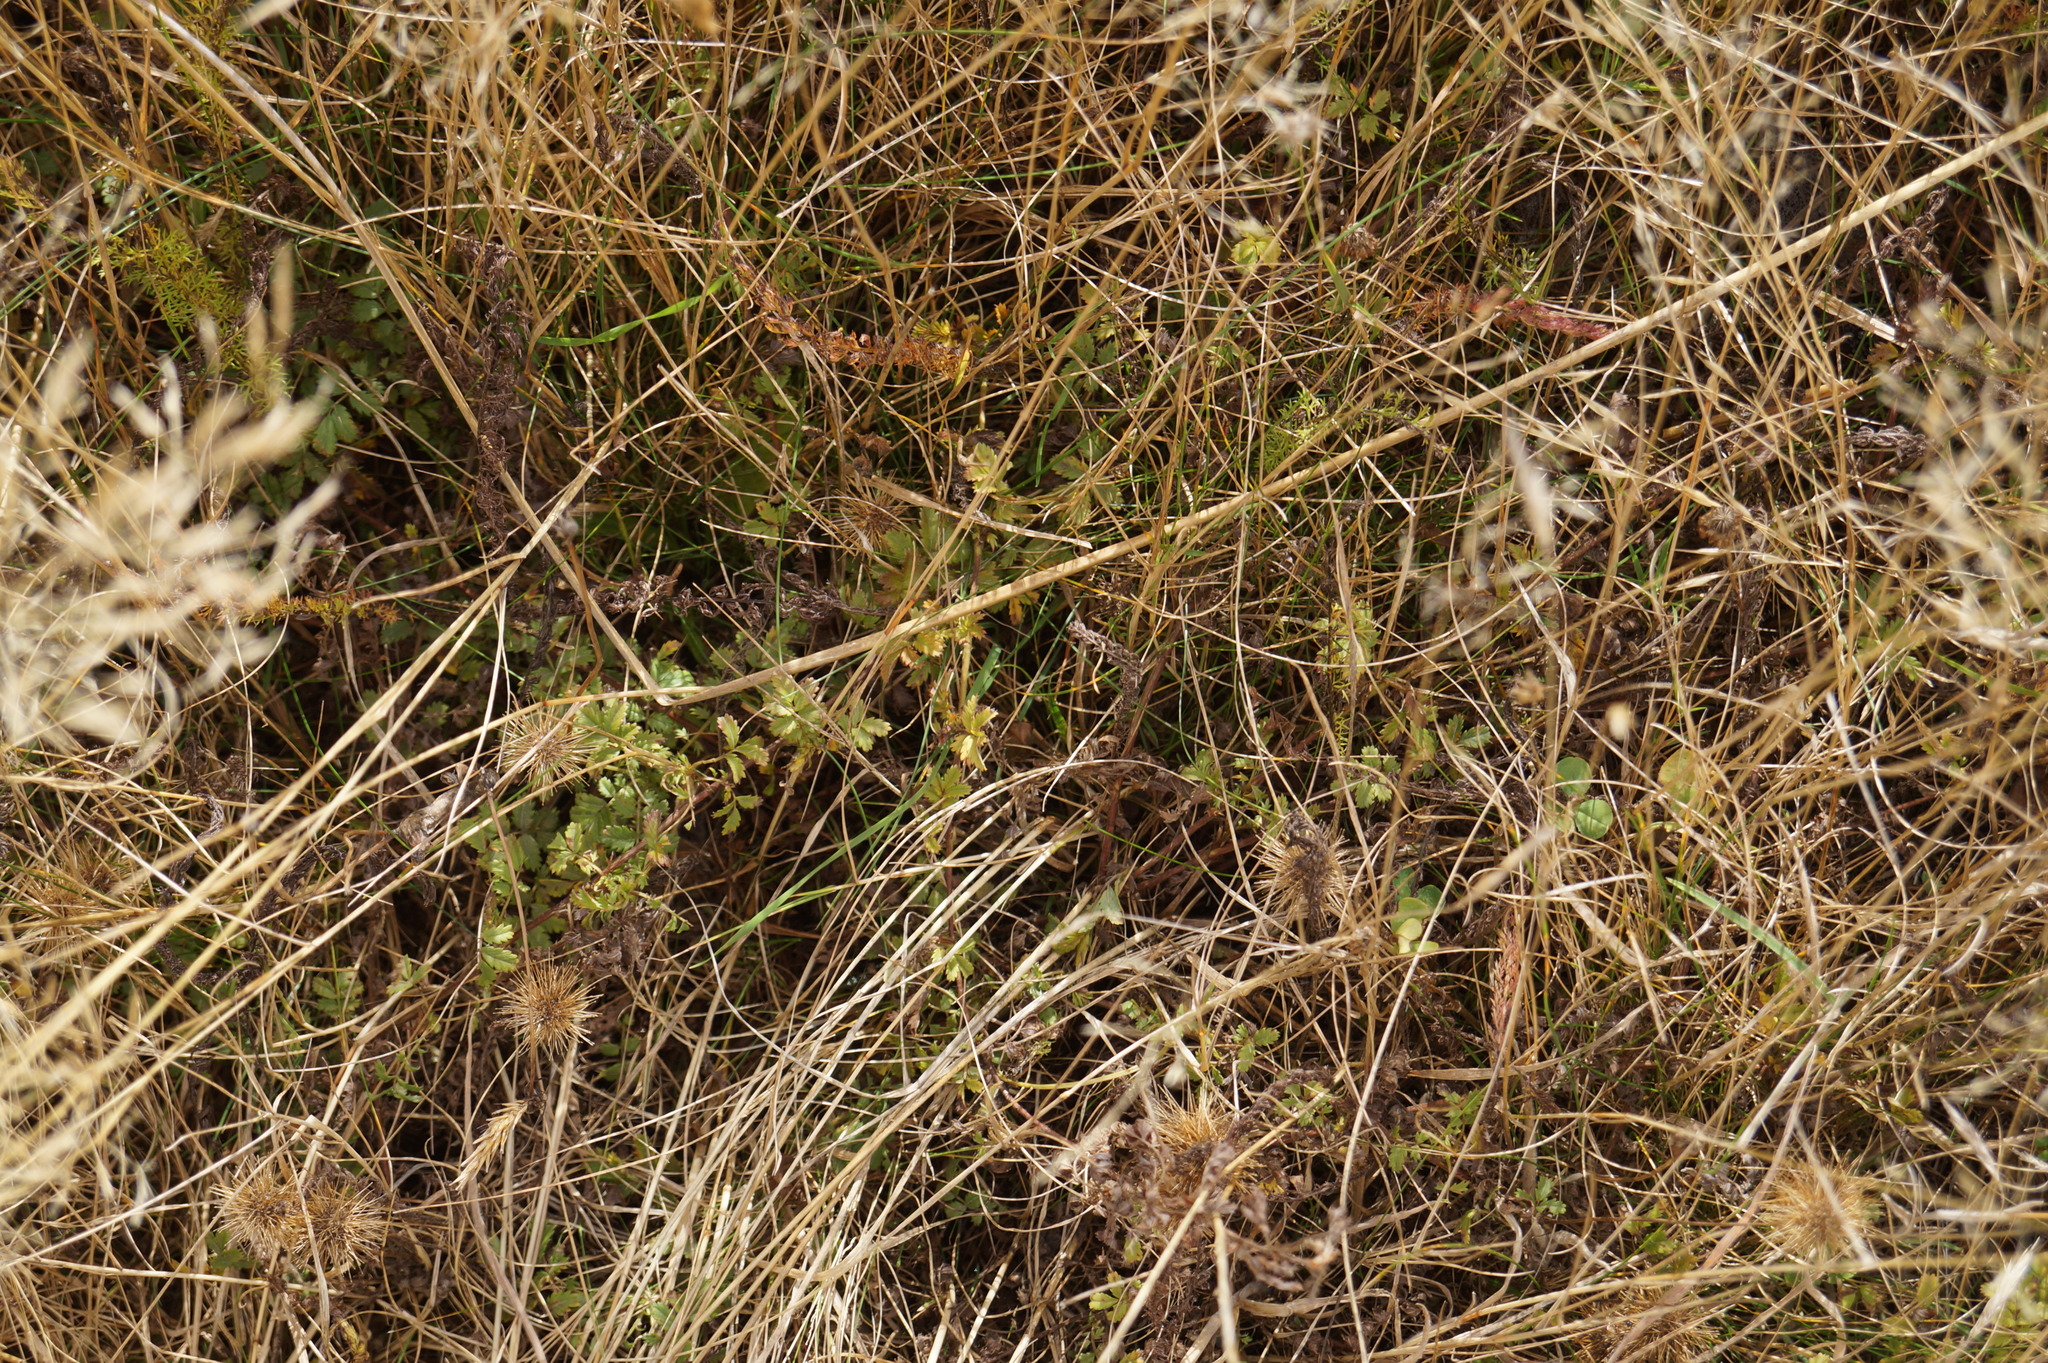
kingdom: Plantae
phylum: Tracheophyta
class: Magnoliopsida
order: Rosales
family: Rosaceae
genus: Acaena
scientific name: Acaena novae-zelandiae
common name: Pirri-pirri-bur
